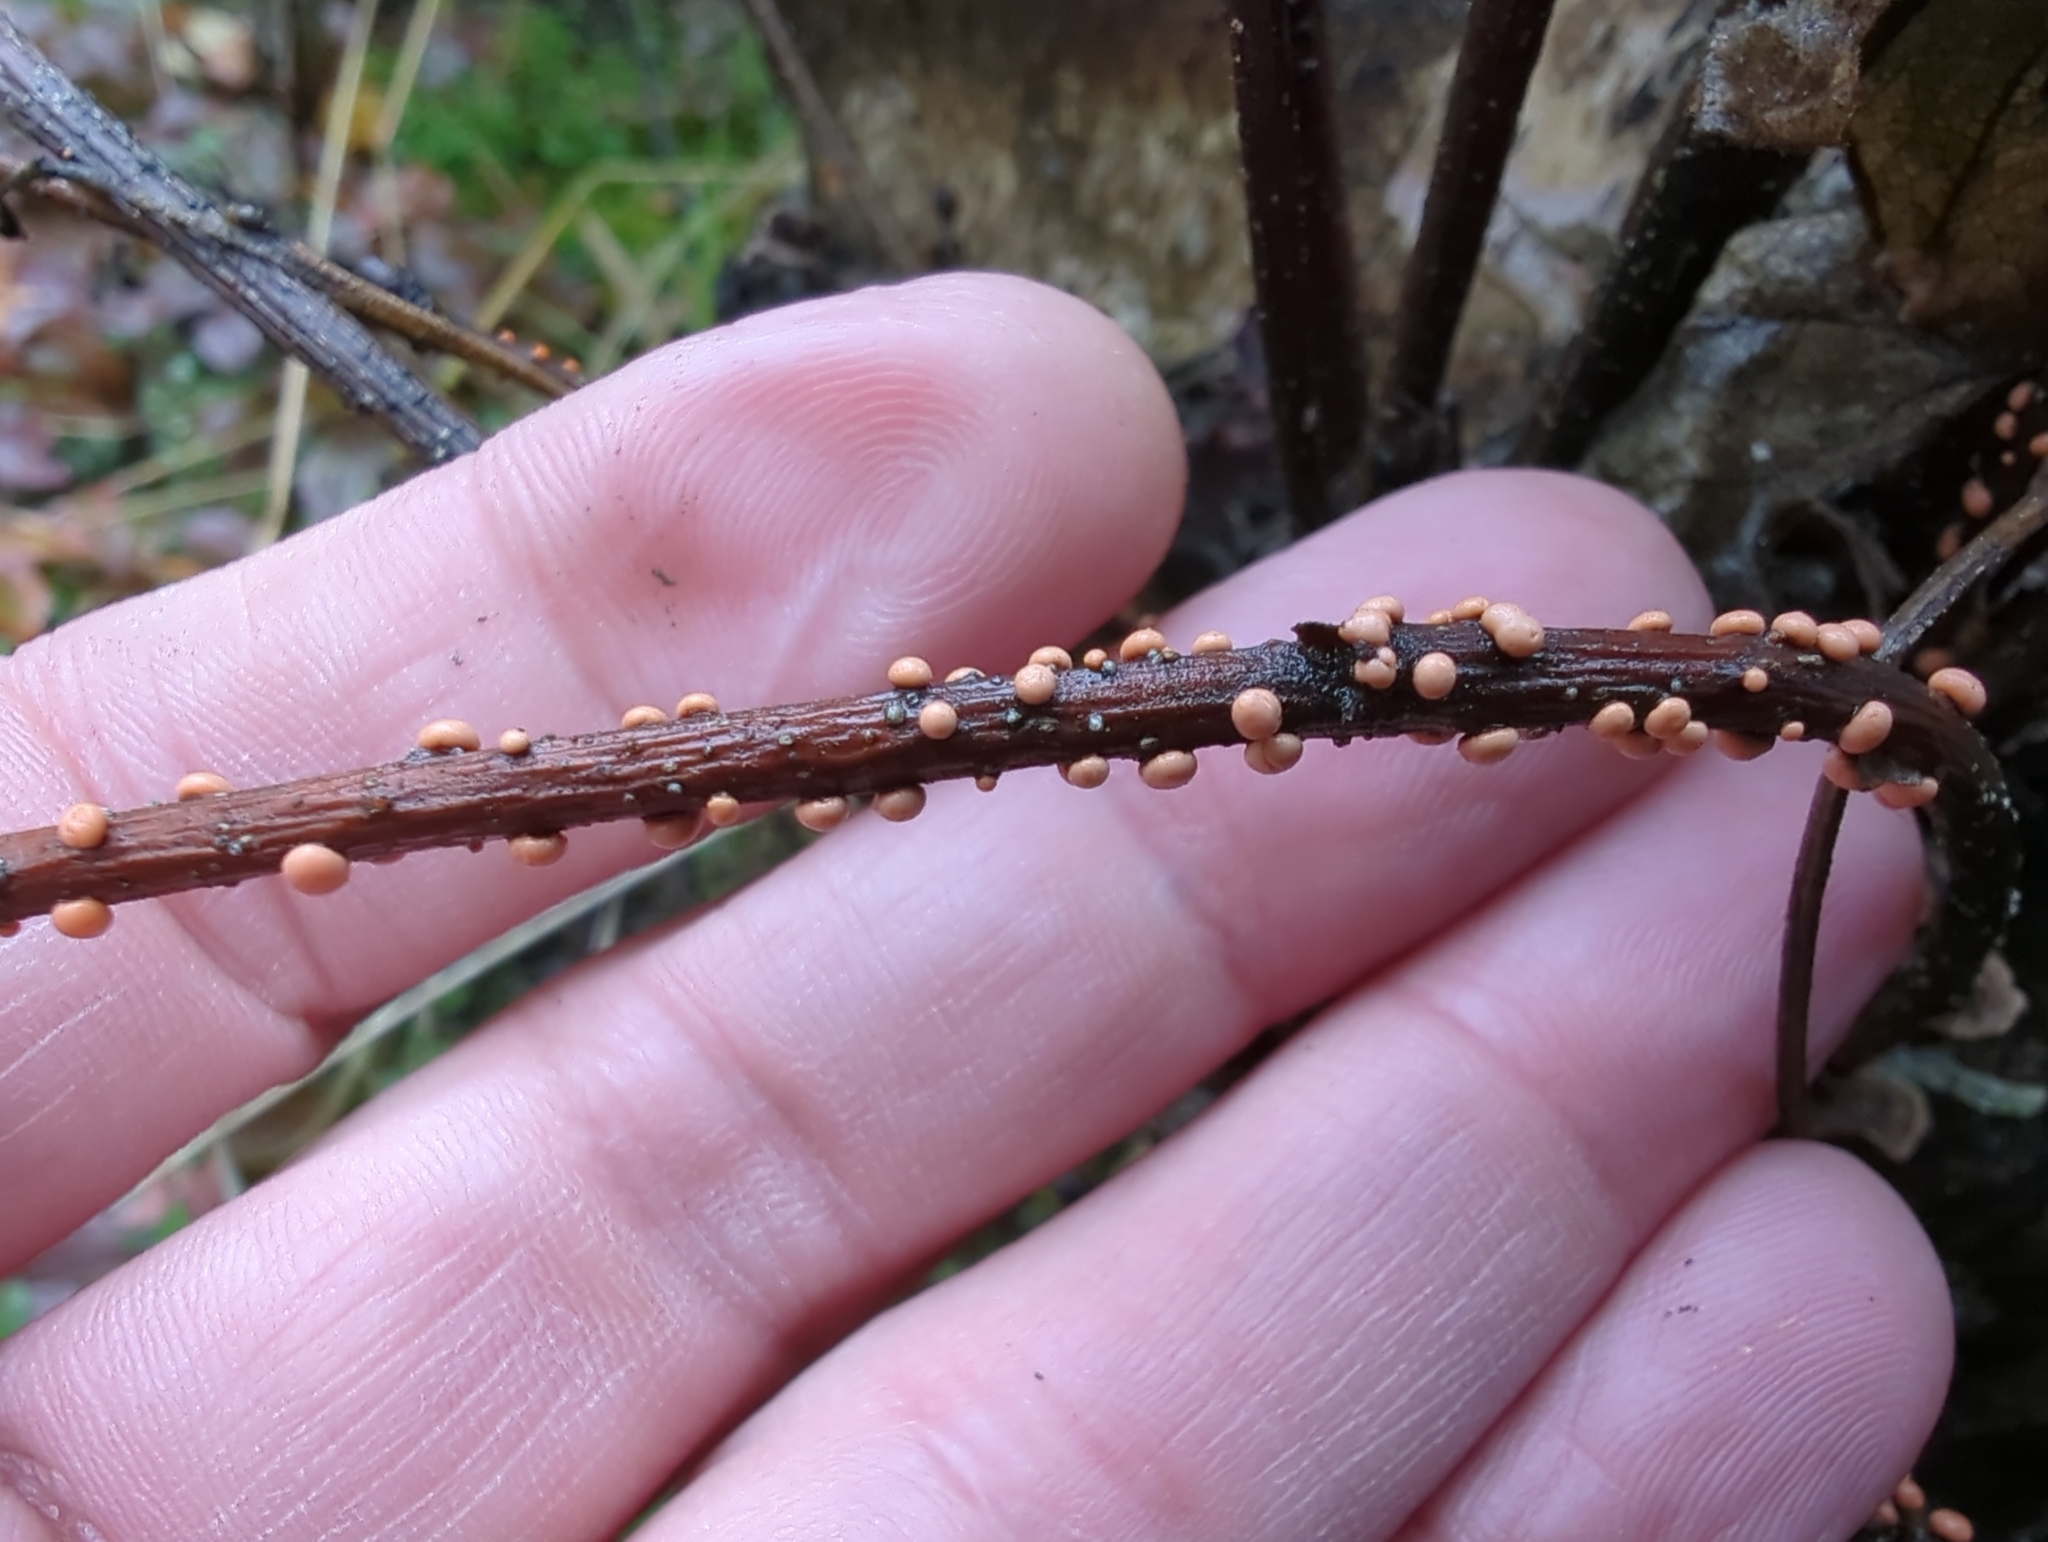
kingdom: Fungi
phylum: Ascomycota
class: Sordariomycetes
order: Hypocreales
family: Nectriaceae
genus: Nectria
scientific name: Nectria cinnabarina
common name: Coral spot
